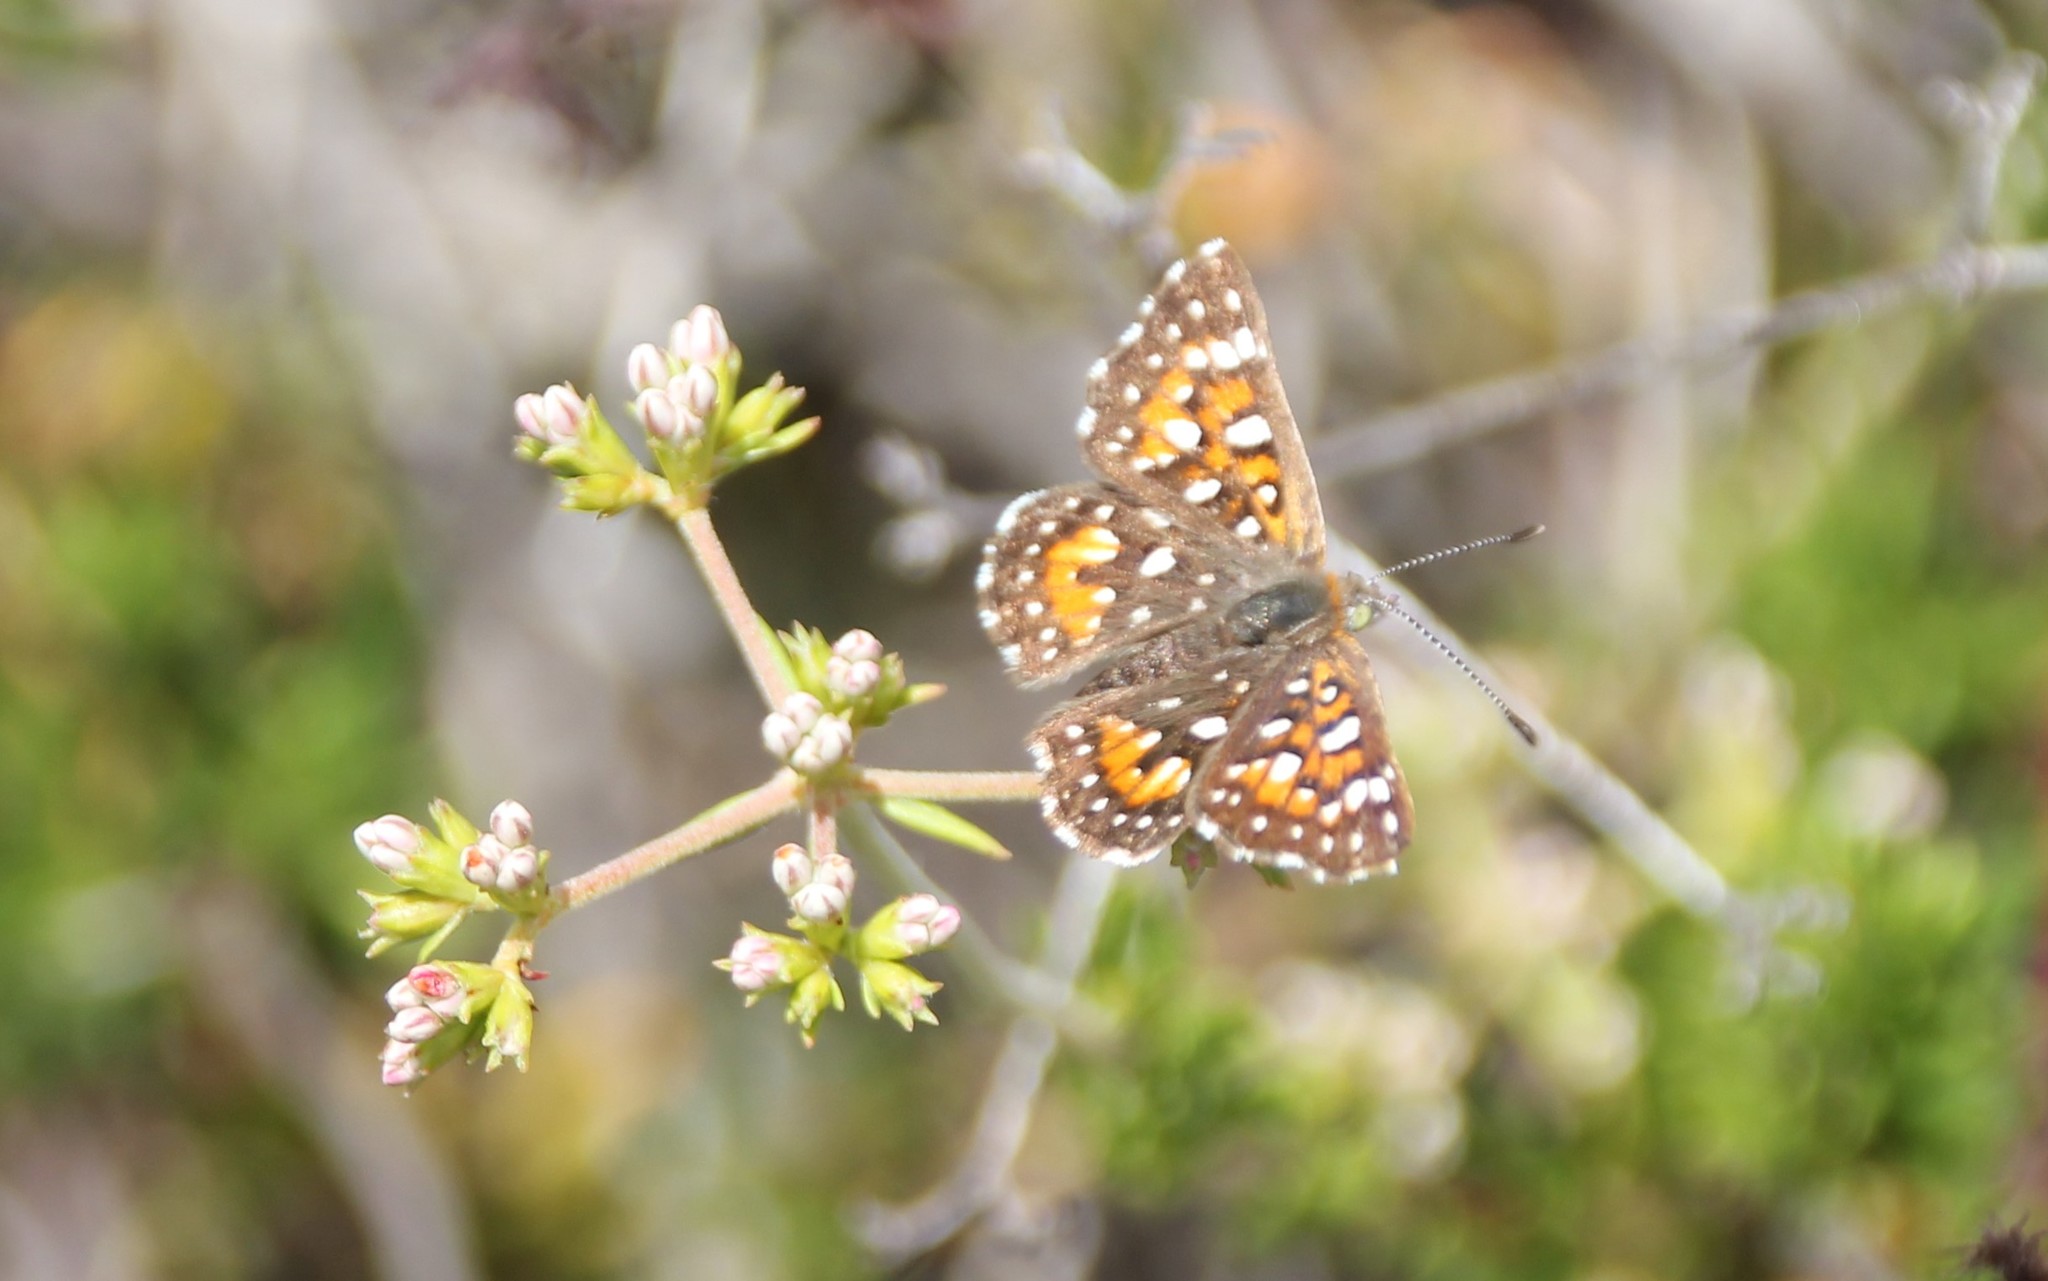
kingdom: Animalia
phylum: Arthropoda
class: Insecta
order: Lepidoptera
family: Riodinidae
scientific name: Riodinidae
